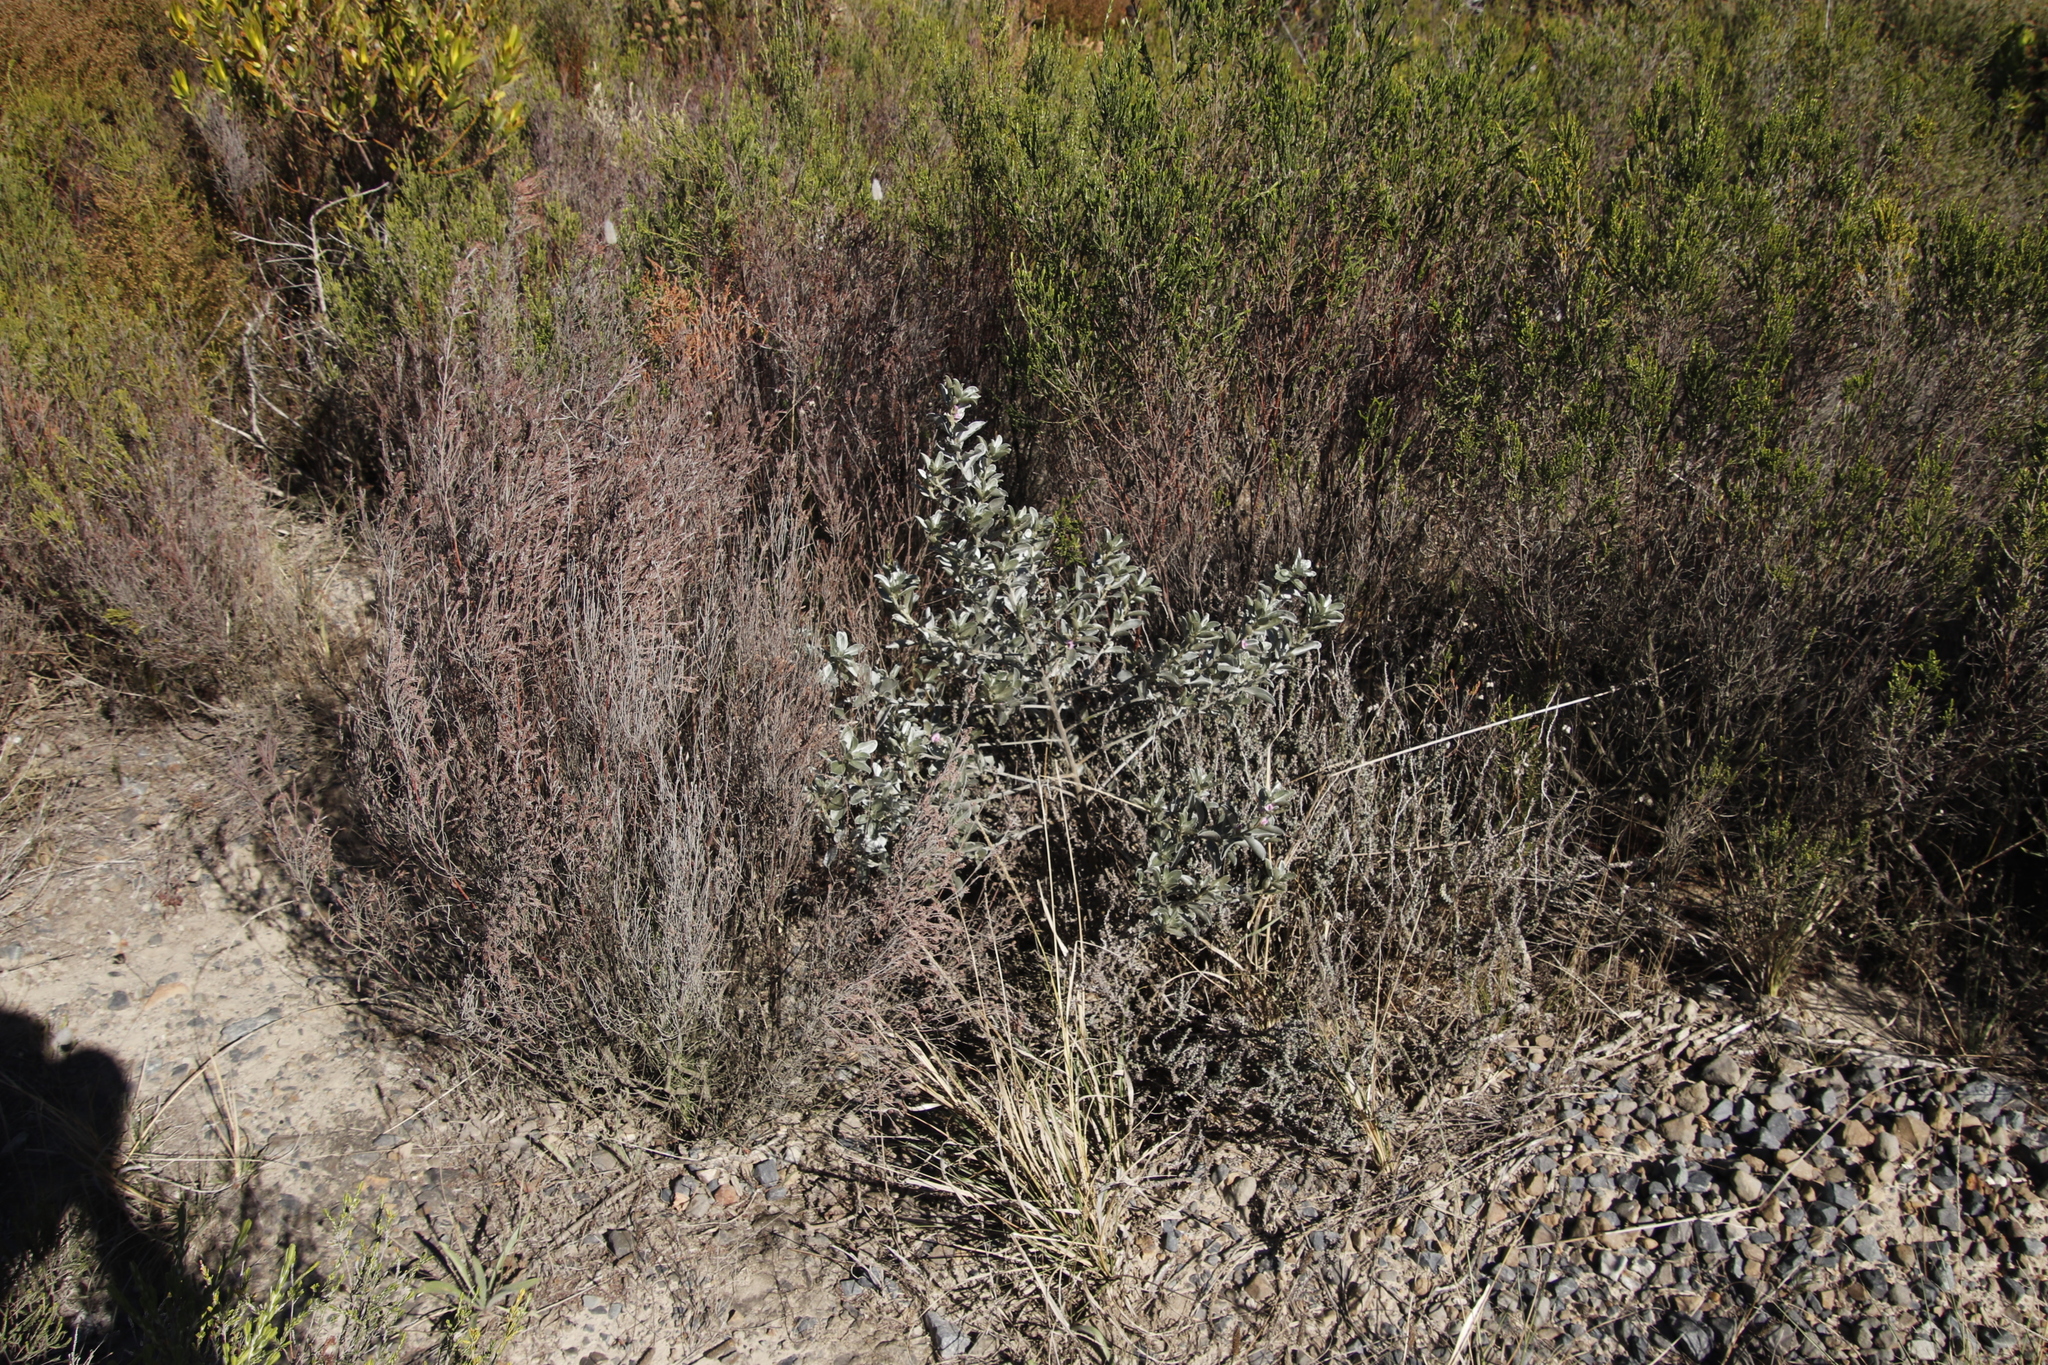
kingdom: Plantae
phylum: Tracheophyta
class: Magnoliopsida
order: Fabales
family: Fabaceae
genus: Podalyria
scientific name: Podalyria sericea
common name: Silver podalyria
